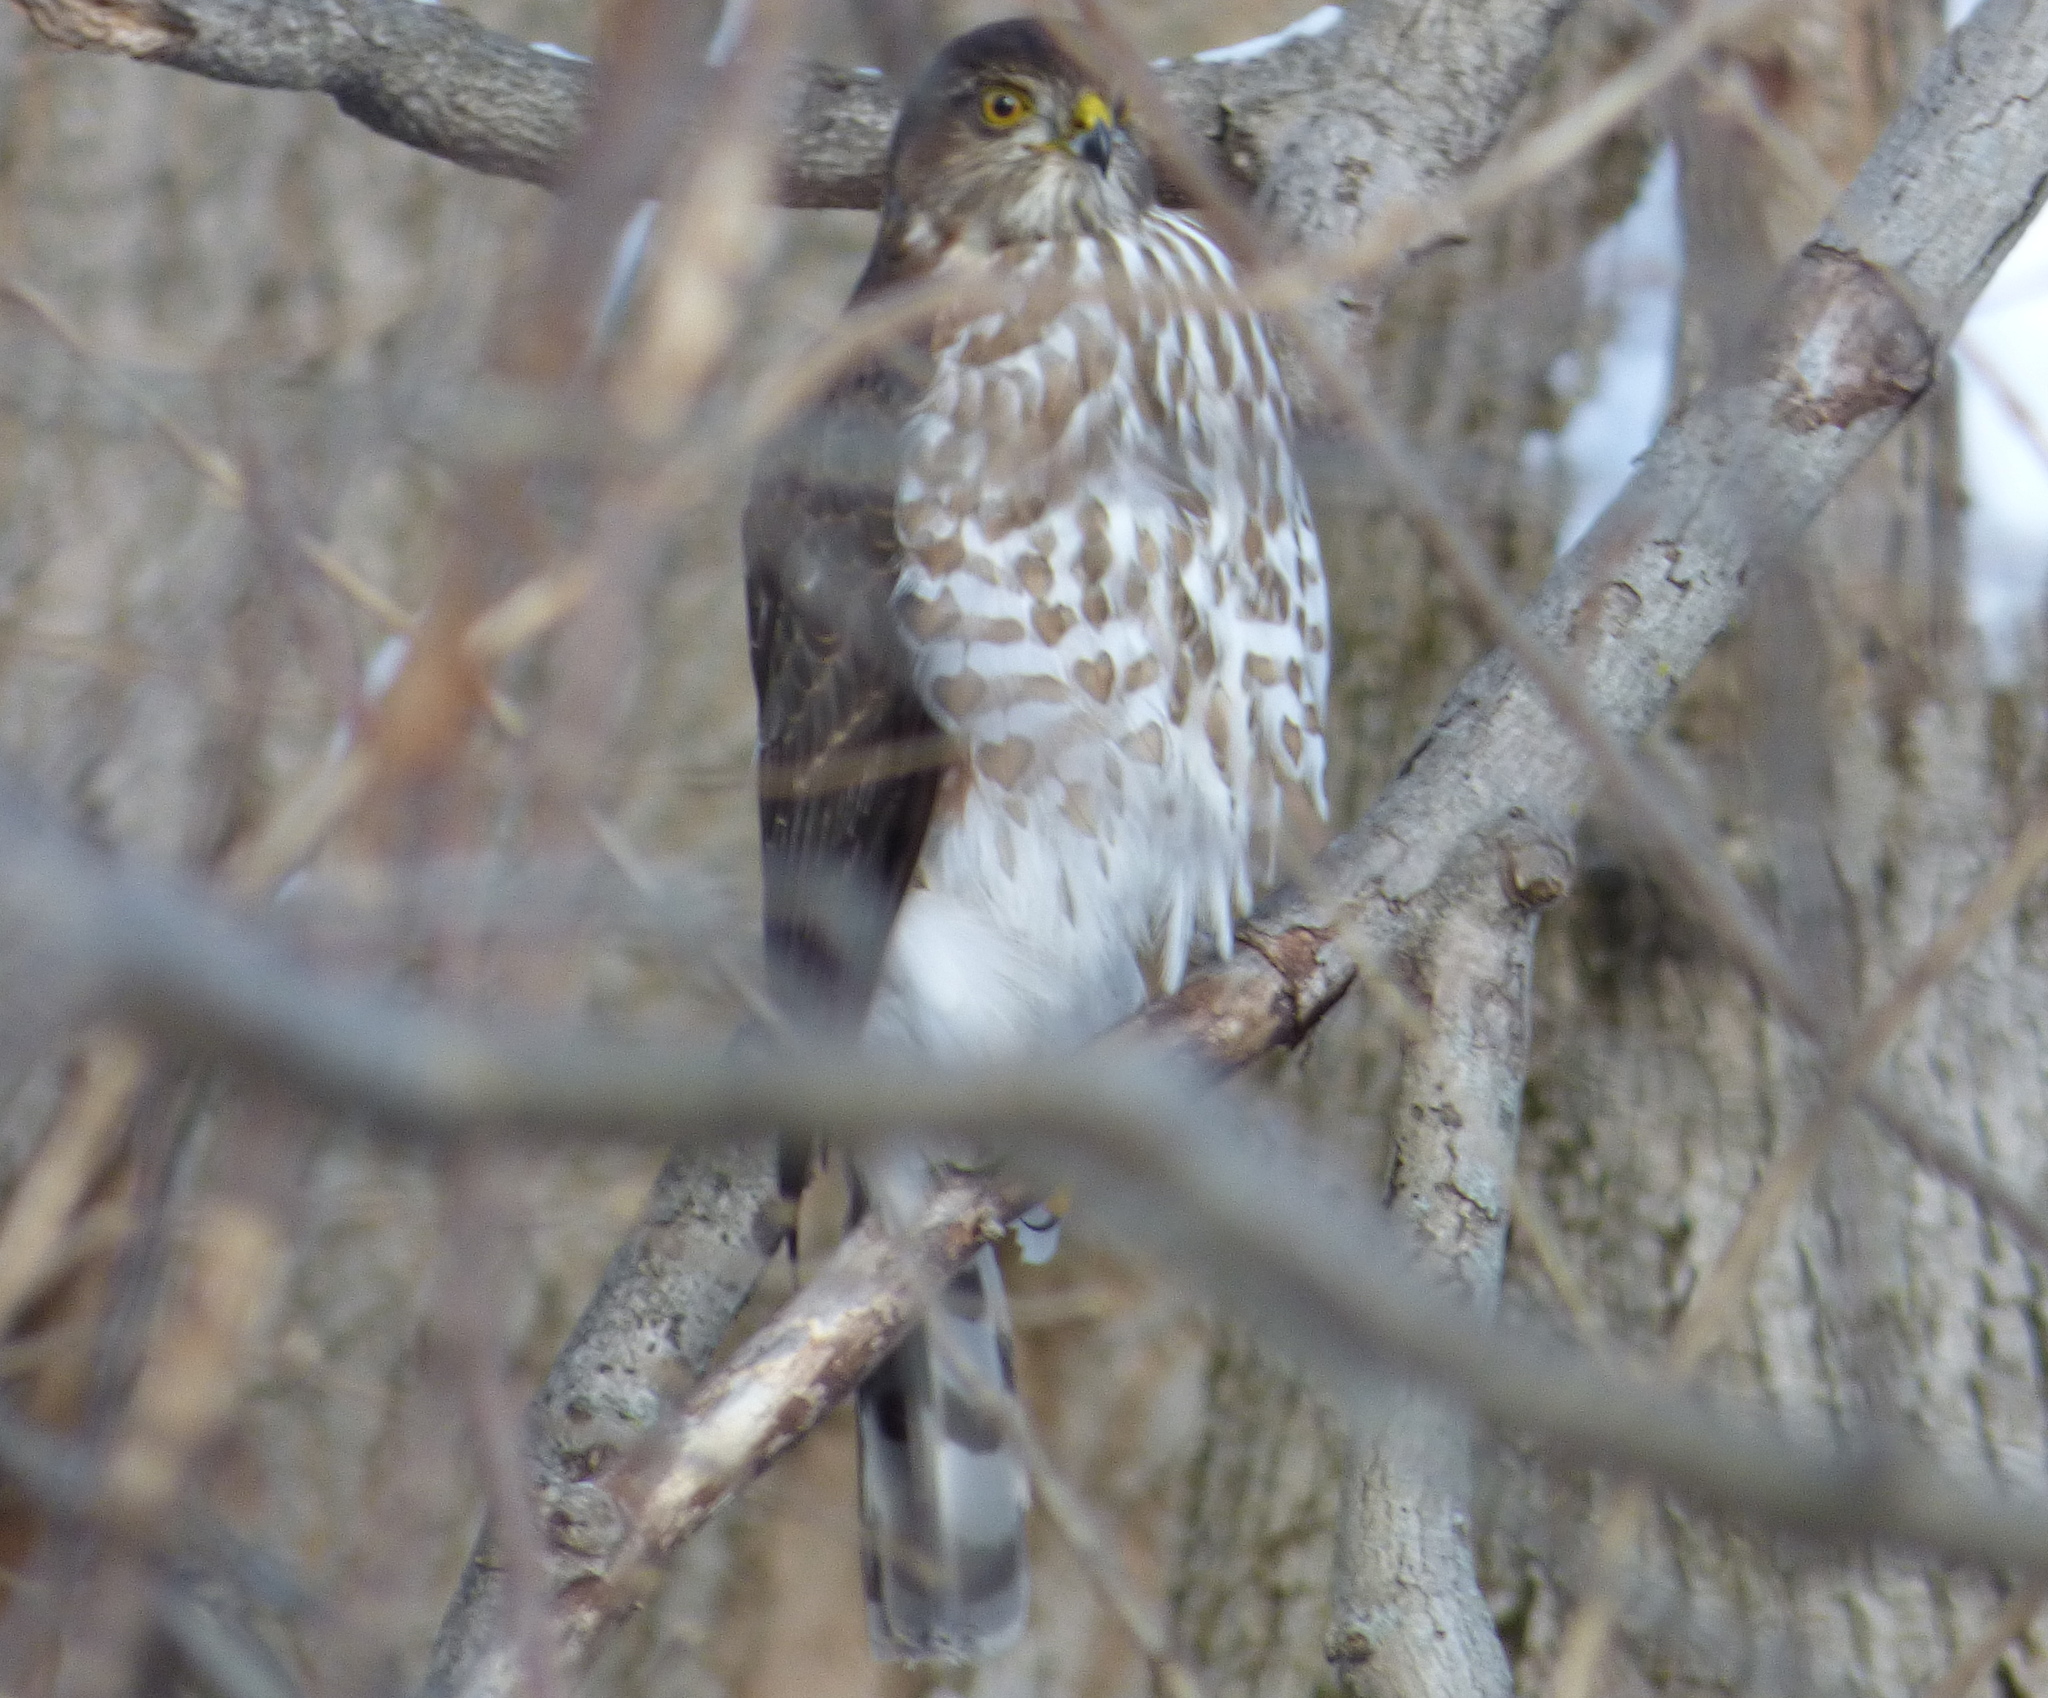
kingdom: Animalia
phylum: Chordata
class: Aves
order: Accipitriformes
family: Accipitridae
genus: Accipiter
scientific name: Accipiter striatus
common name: Sharp-shinned hawk
